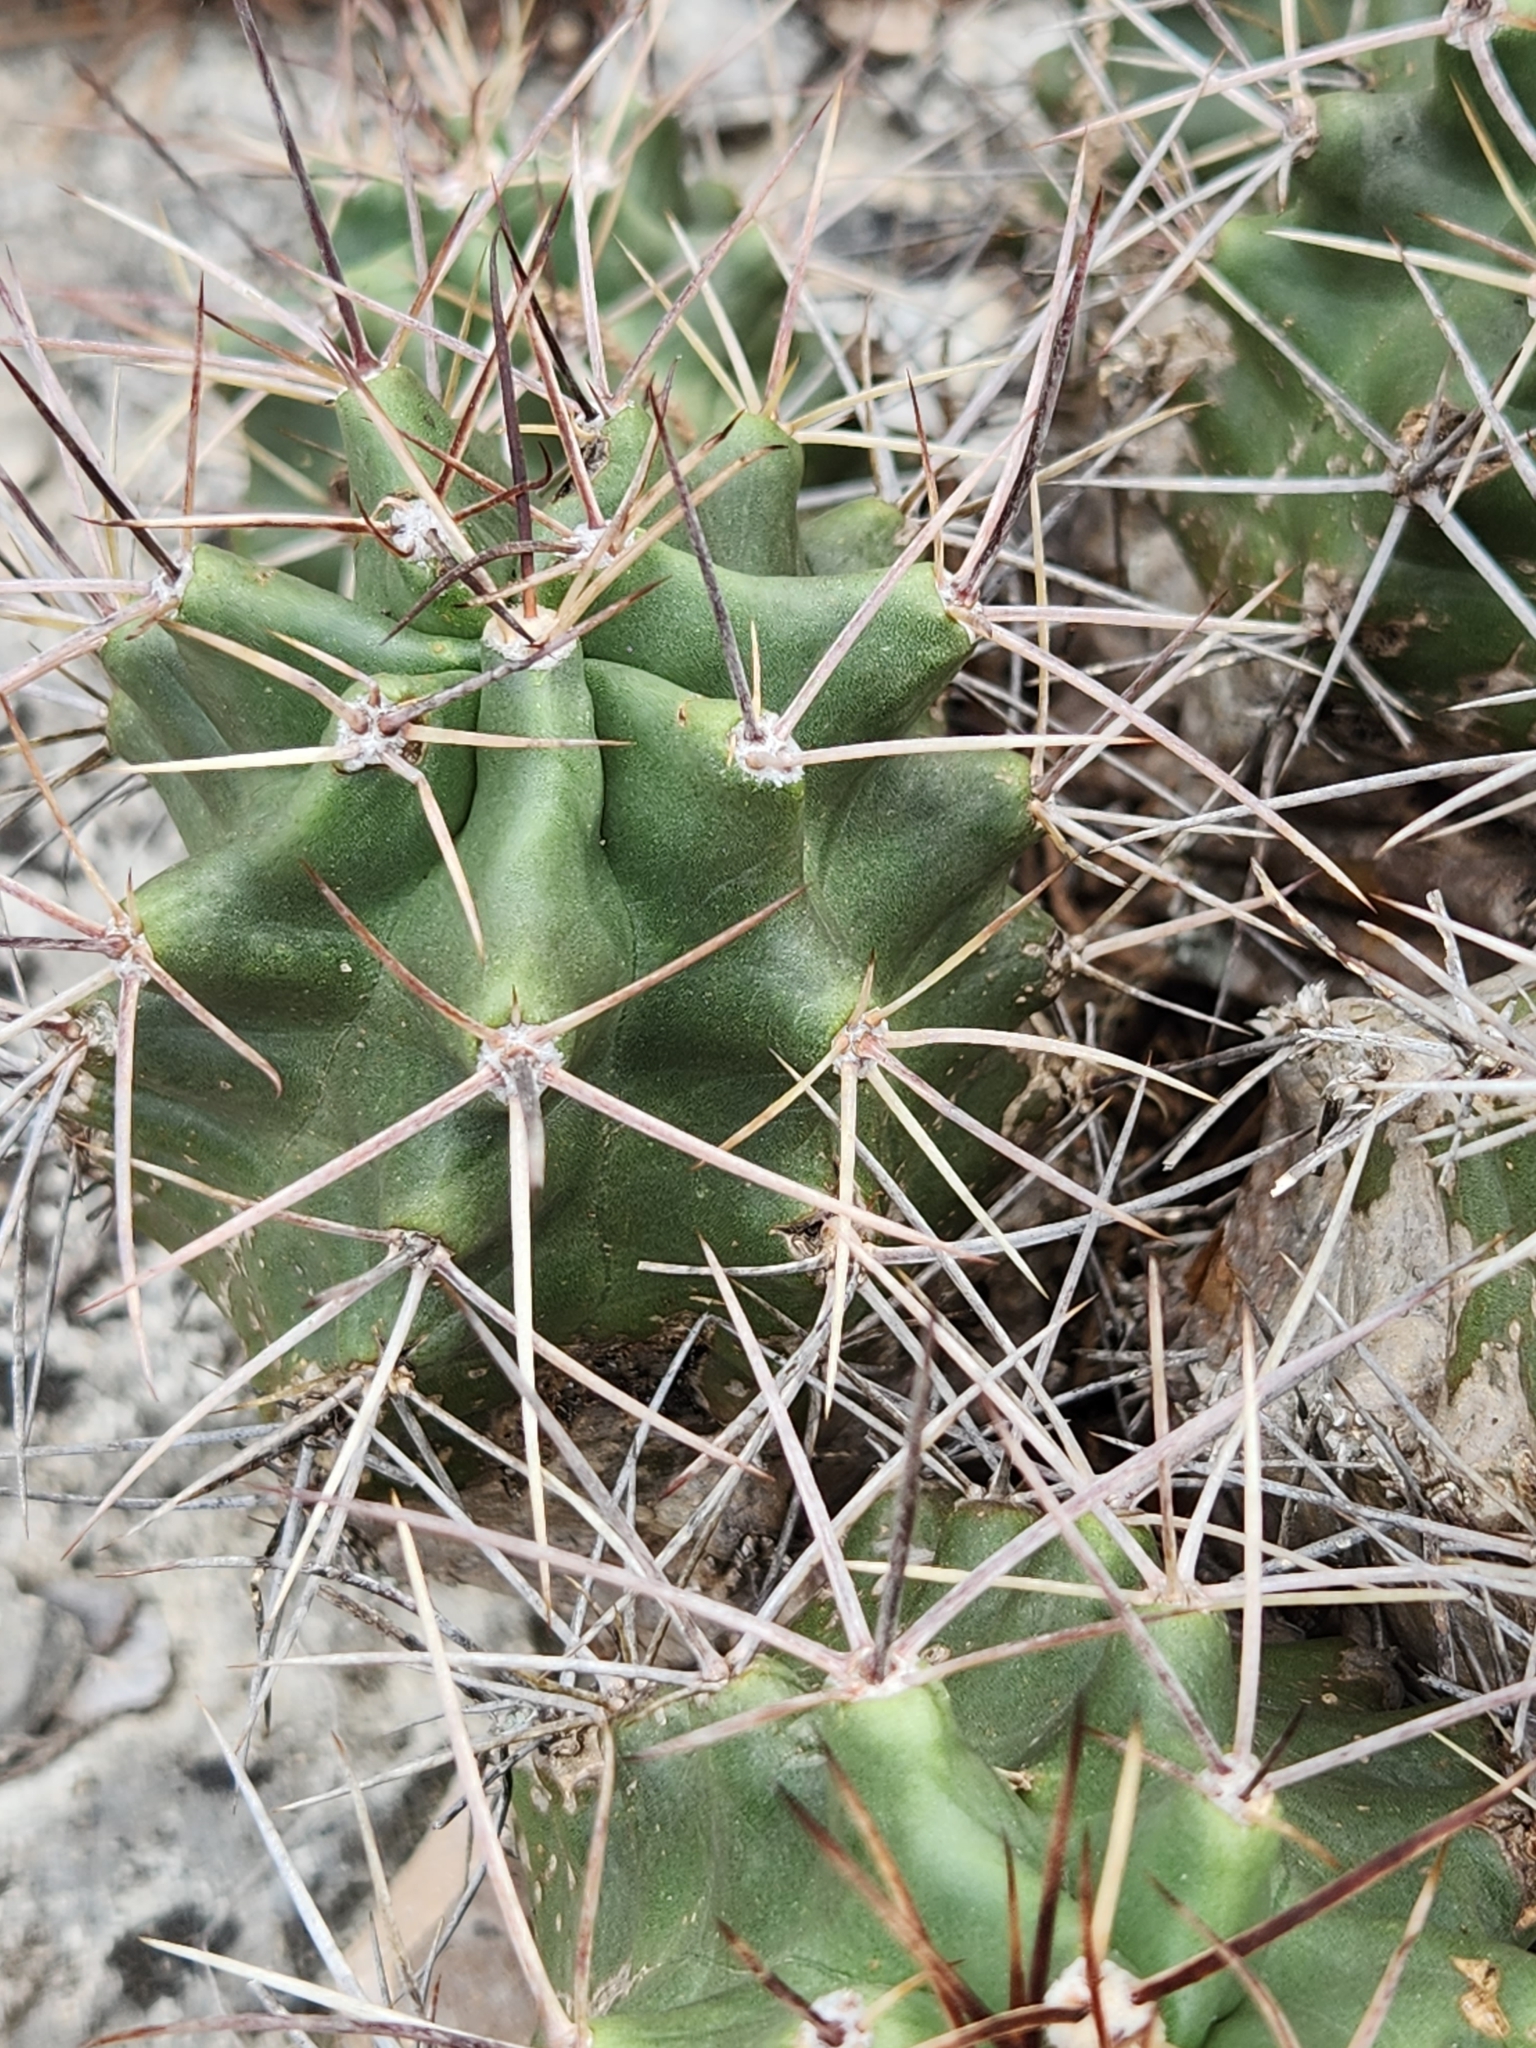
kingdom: Plantae
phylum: Tracheophyta
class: Magnoliopsida
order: Caryophyllales
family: Cactaceae
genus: Echinocereus
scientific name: Echinocereus coccineus
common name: Scarlet hedgehog cactus
